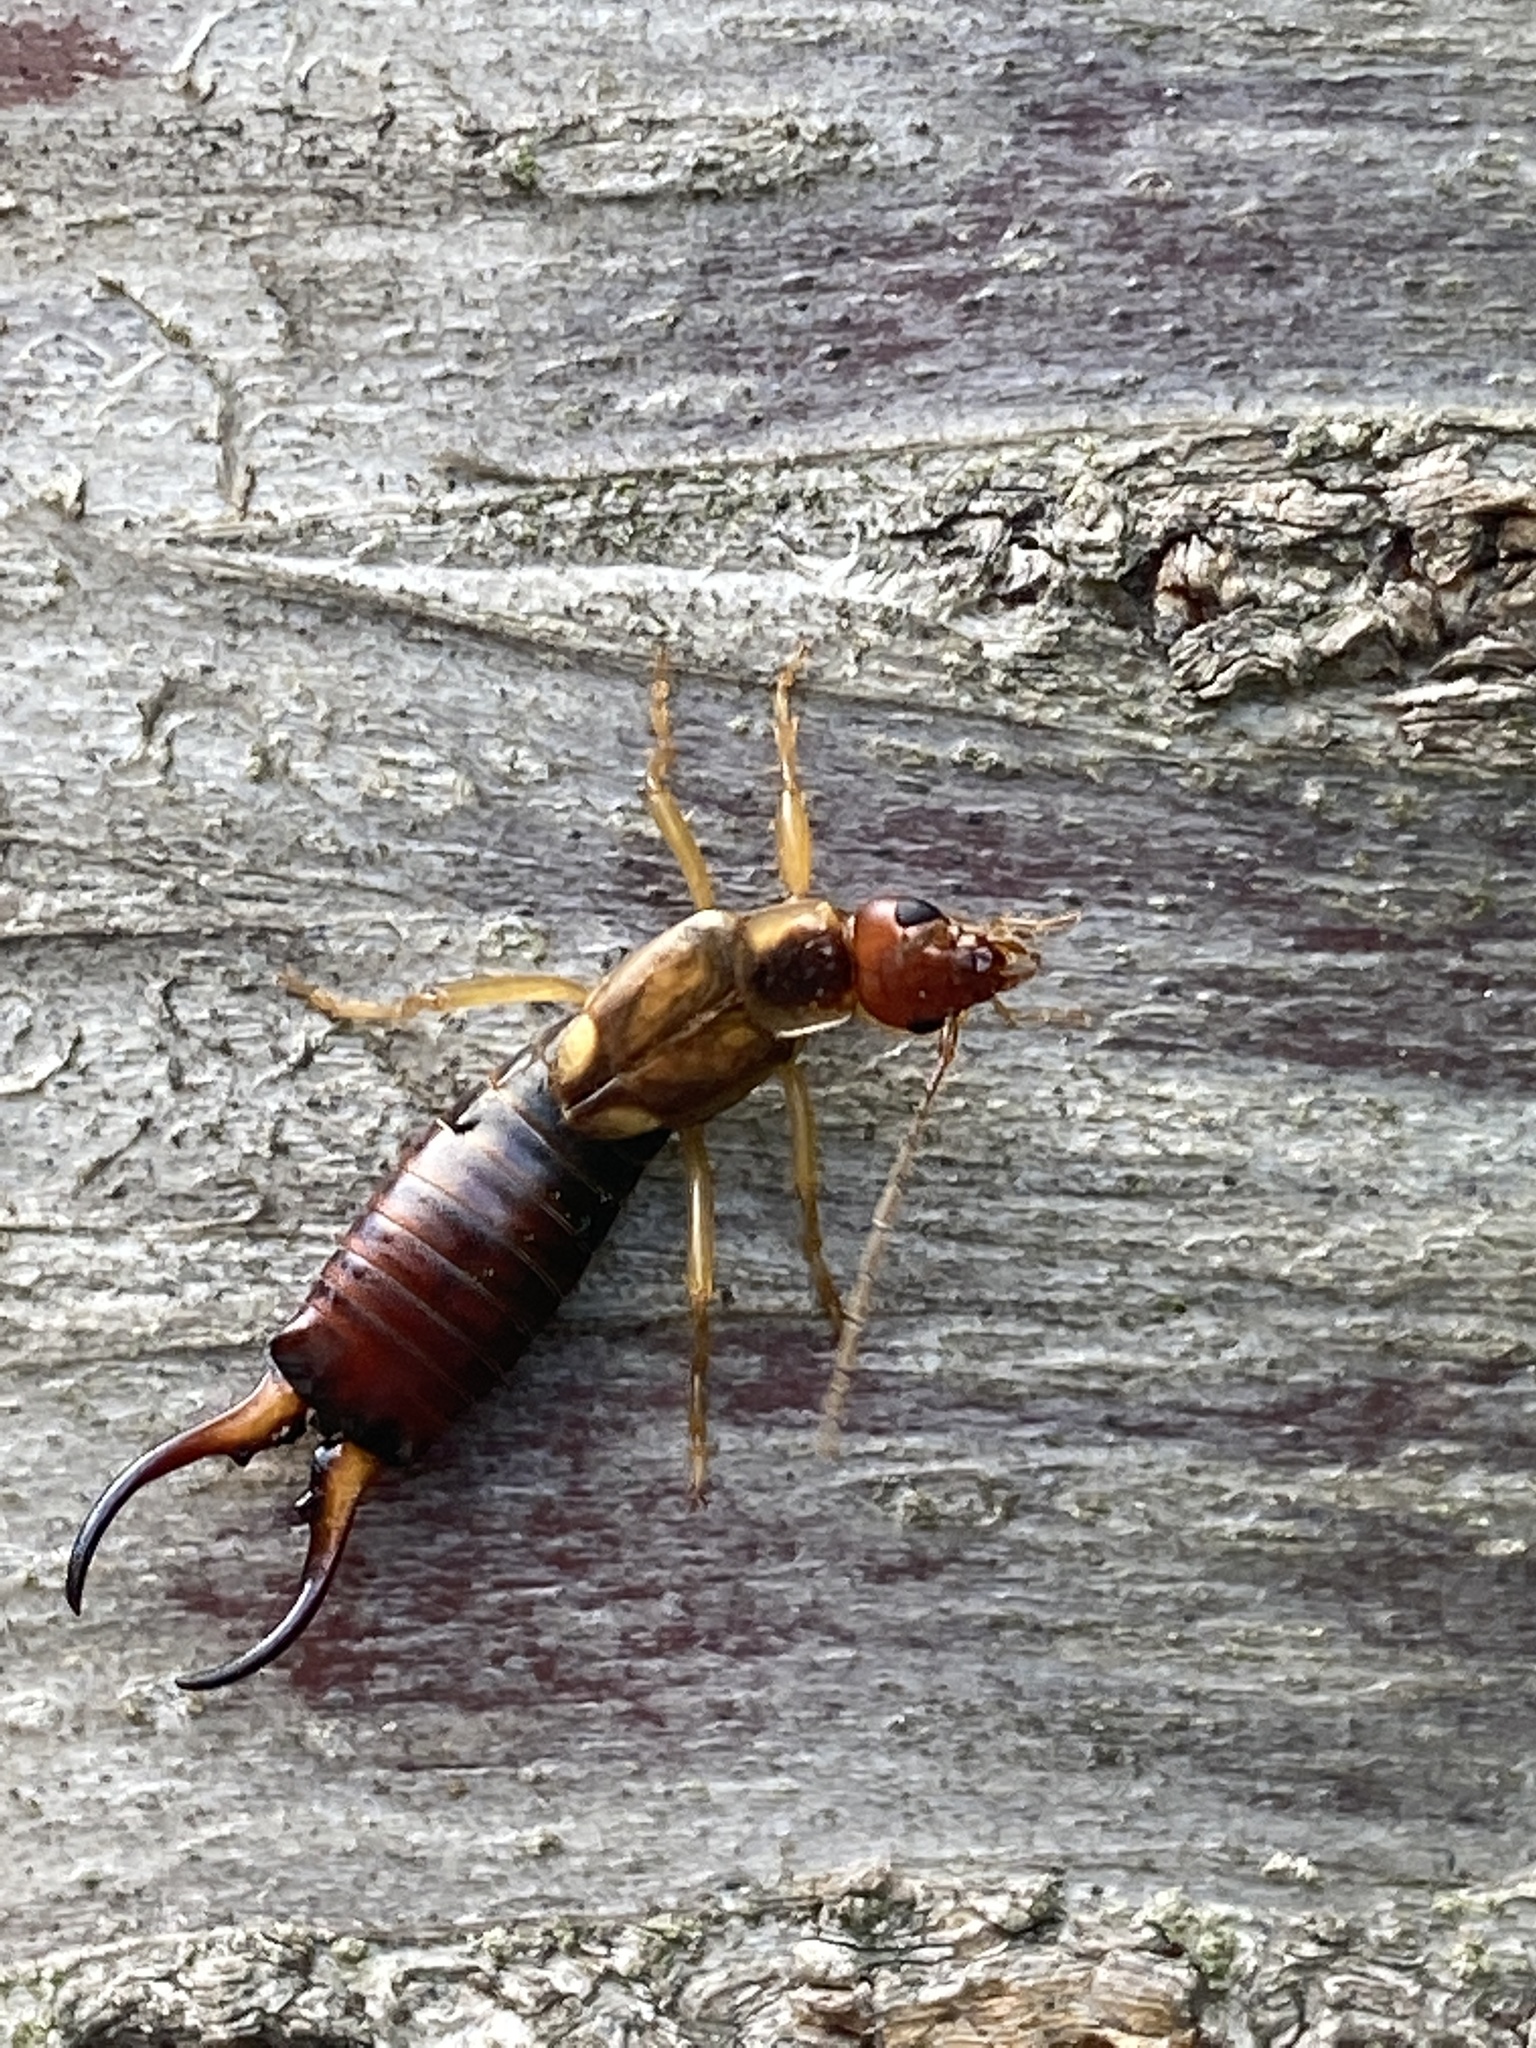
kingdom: Animalia
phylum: Arthropoda
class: Insecta
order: Dermaptera
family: Forficulidae
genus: Forficula
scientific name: Forficula
